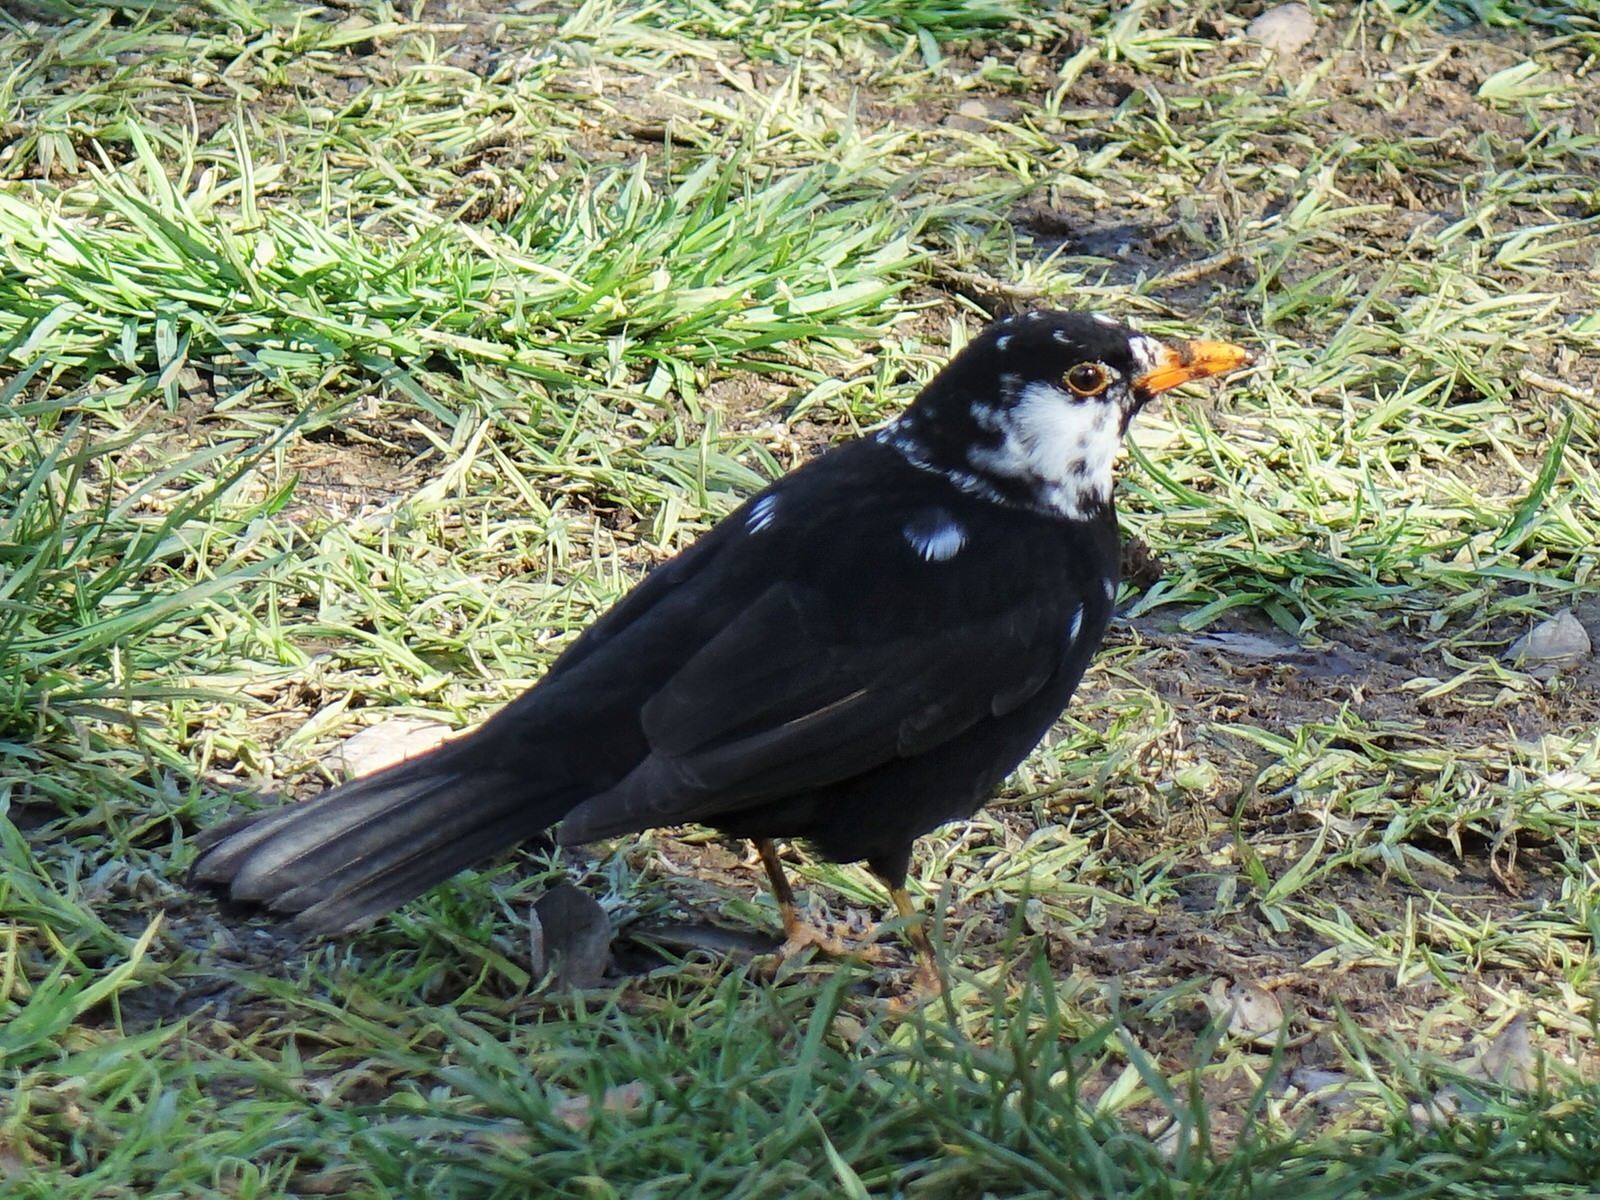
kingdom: Animalia
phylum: Chordata
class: Aves
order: Passeriformes
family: Turdidae
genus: Turdus
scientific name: Turdus merula
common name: Common blackbird
